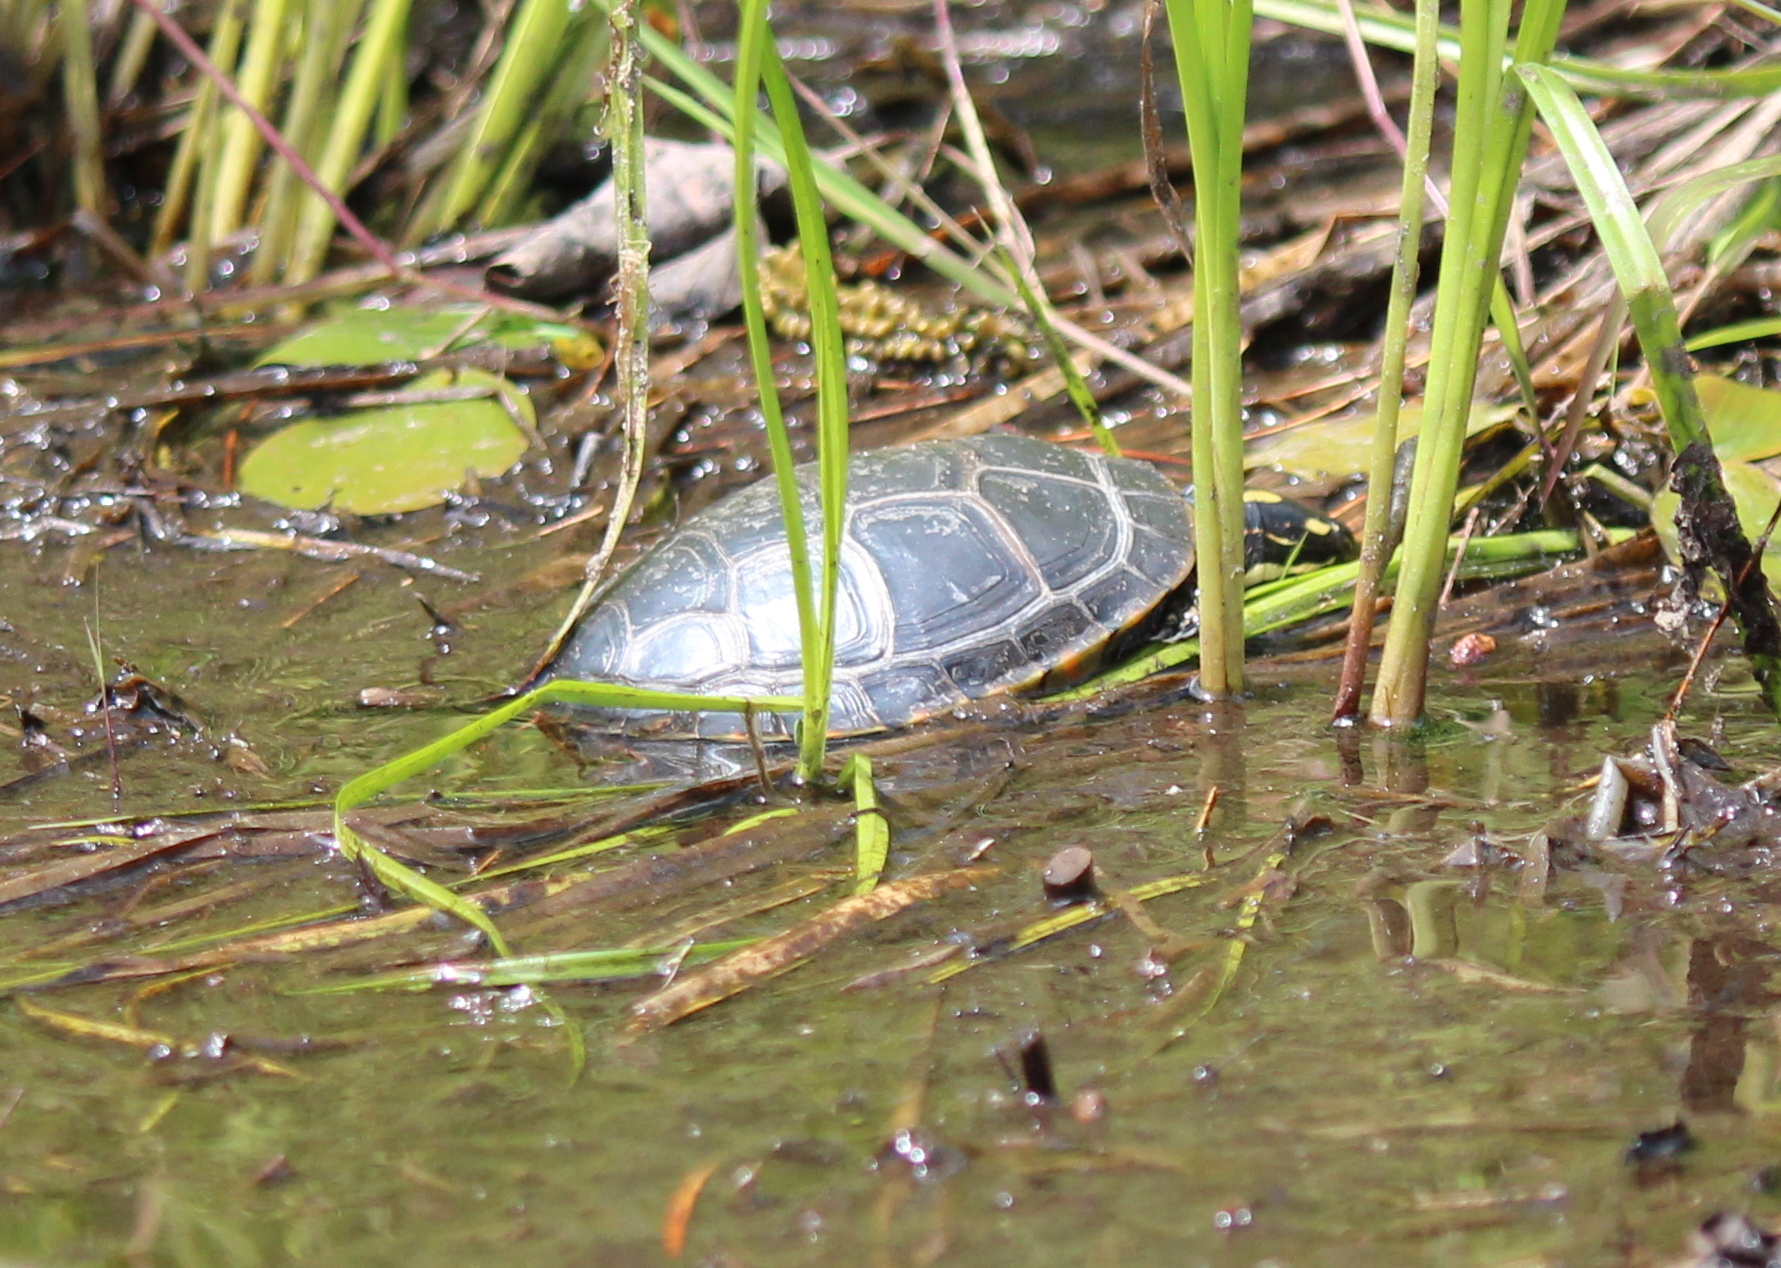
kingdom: Animalia
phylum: Chordata
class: Testudines
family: Emydidae
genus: Chrysemys
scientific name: Chrysemys picta
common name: Painted turtle
